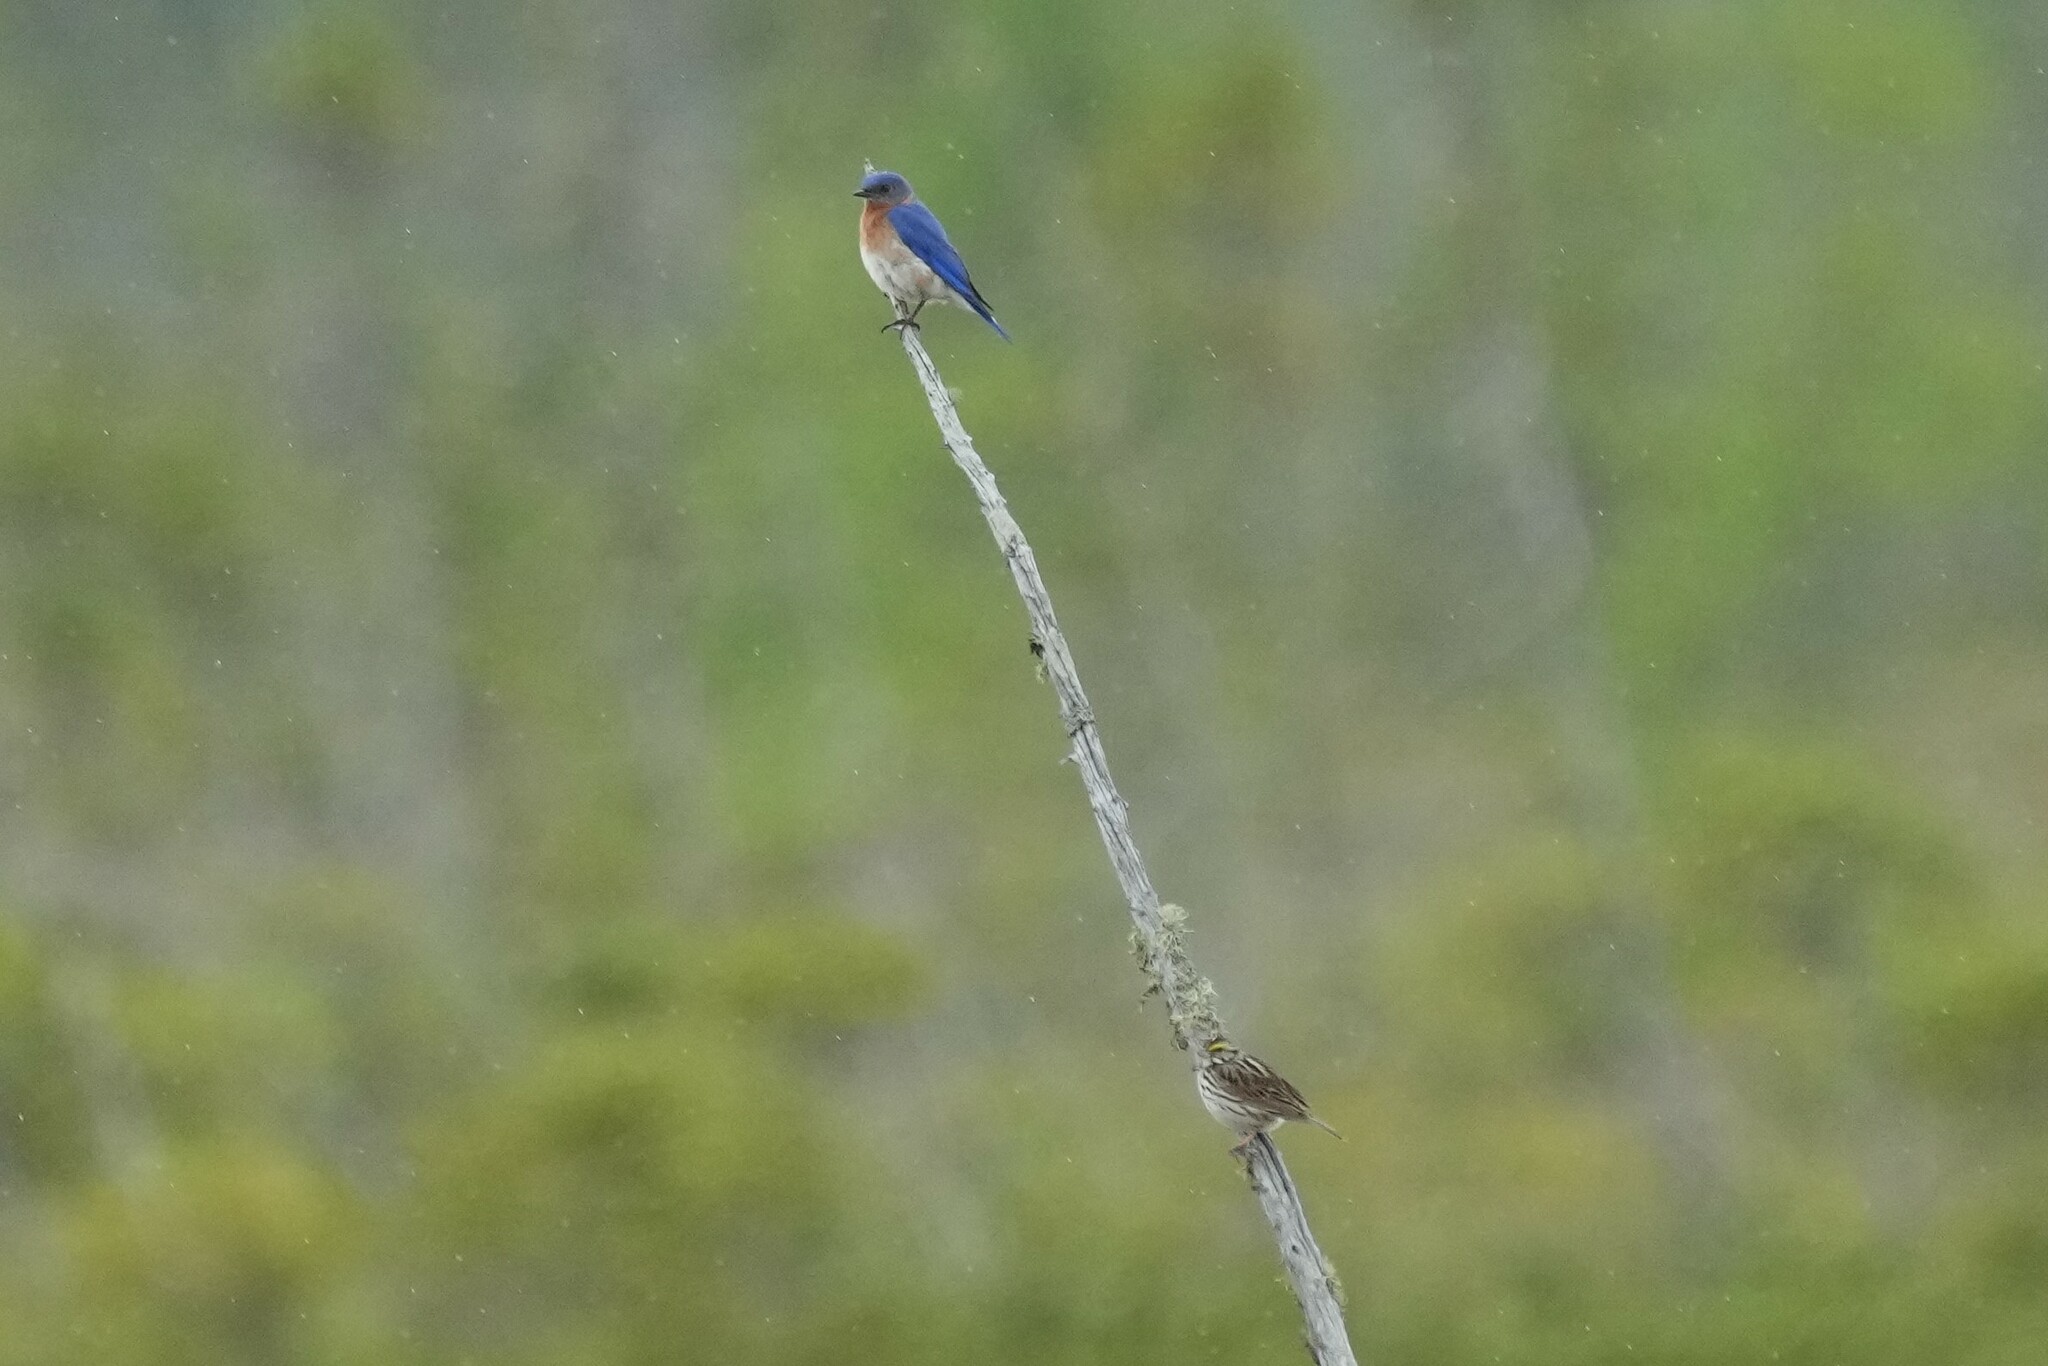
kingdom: Animalia
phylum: Chordata
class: Aves
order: Passeriformes
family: Turdidae
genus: Sialia
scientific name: Sialia sialis
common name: Eastern bluebird
